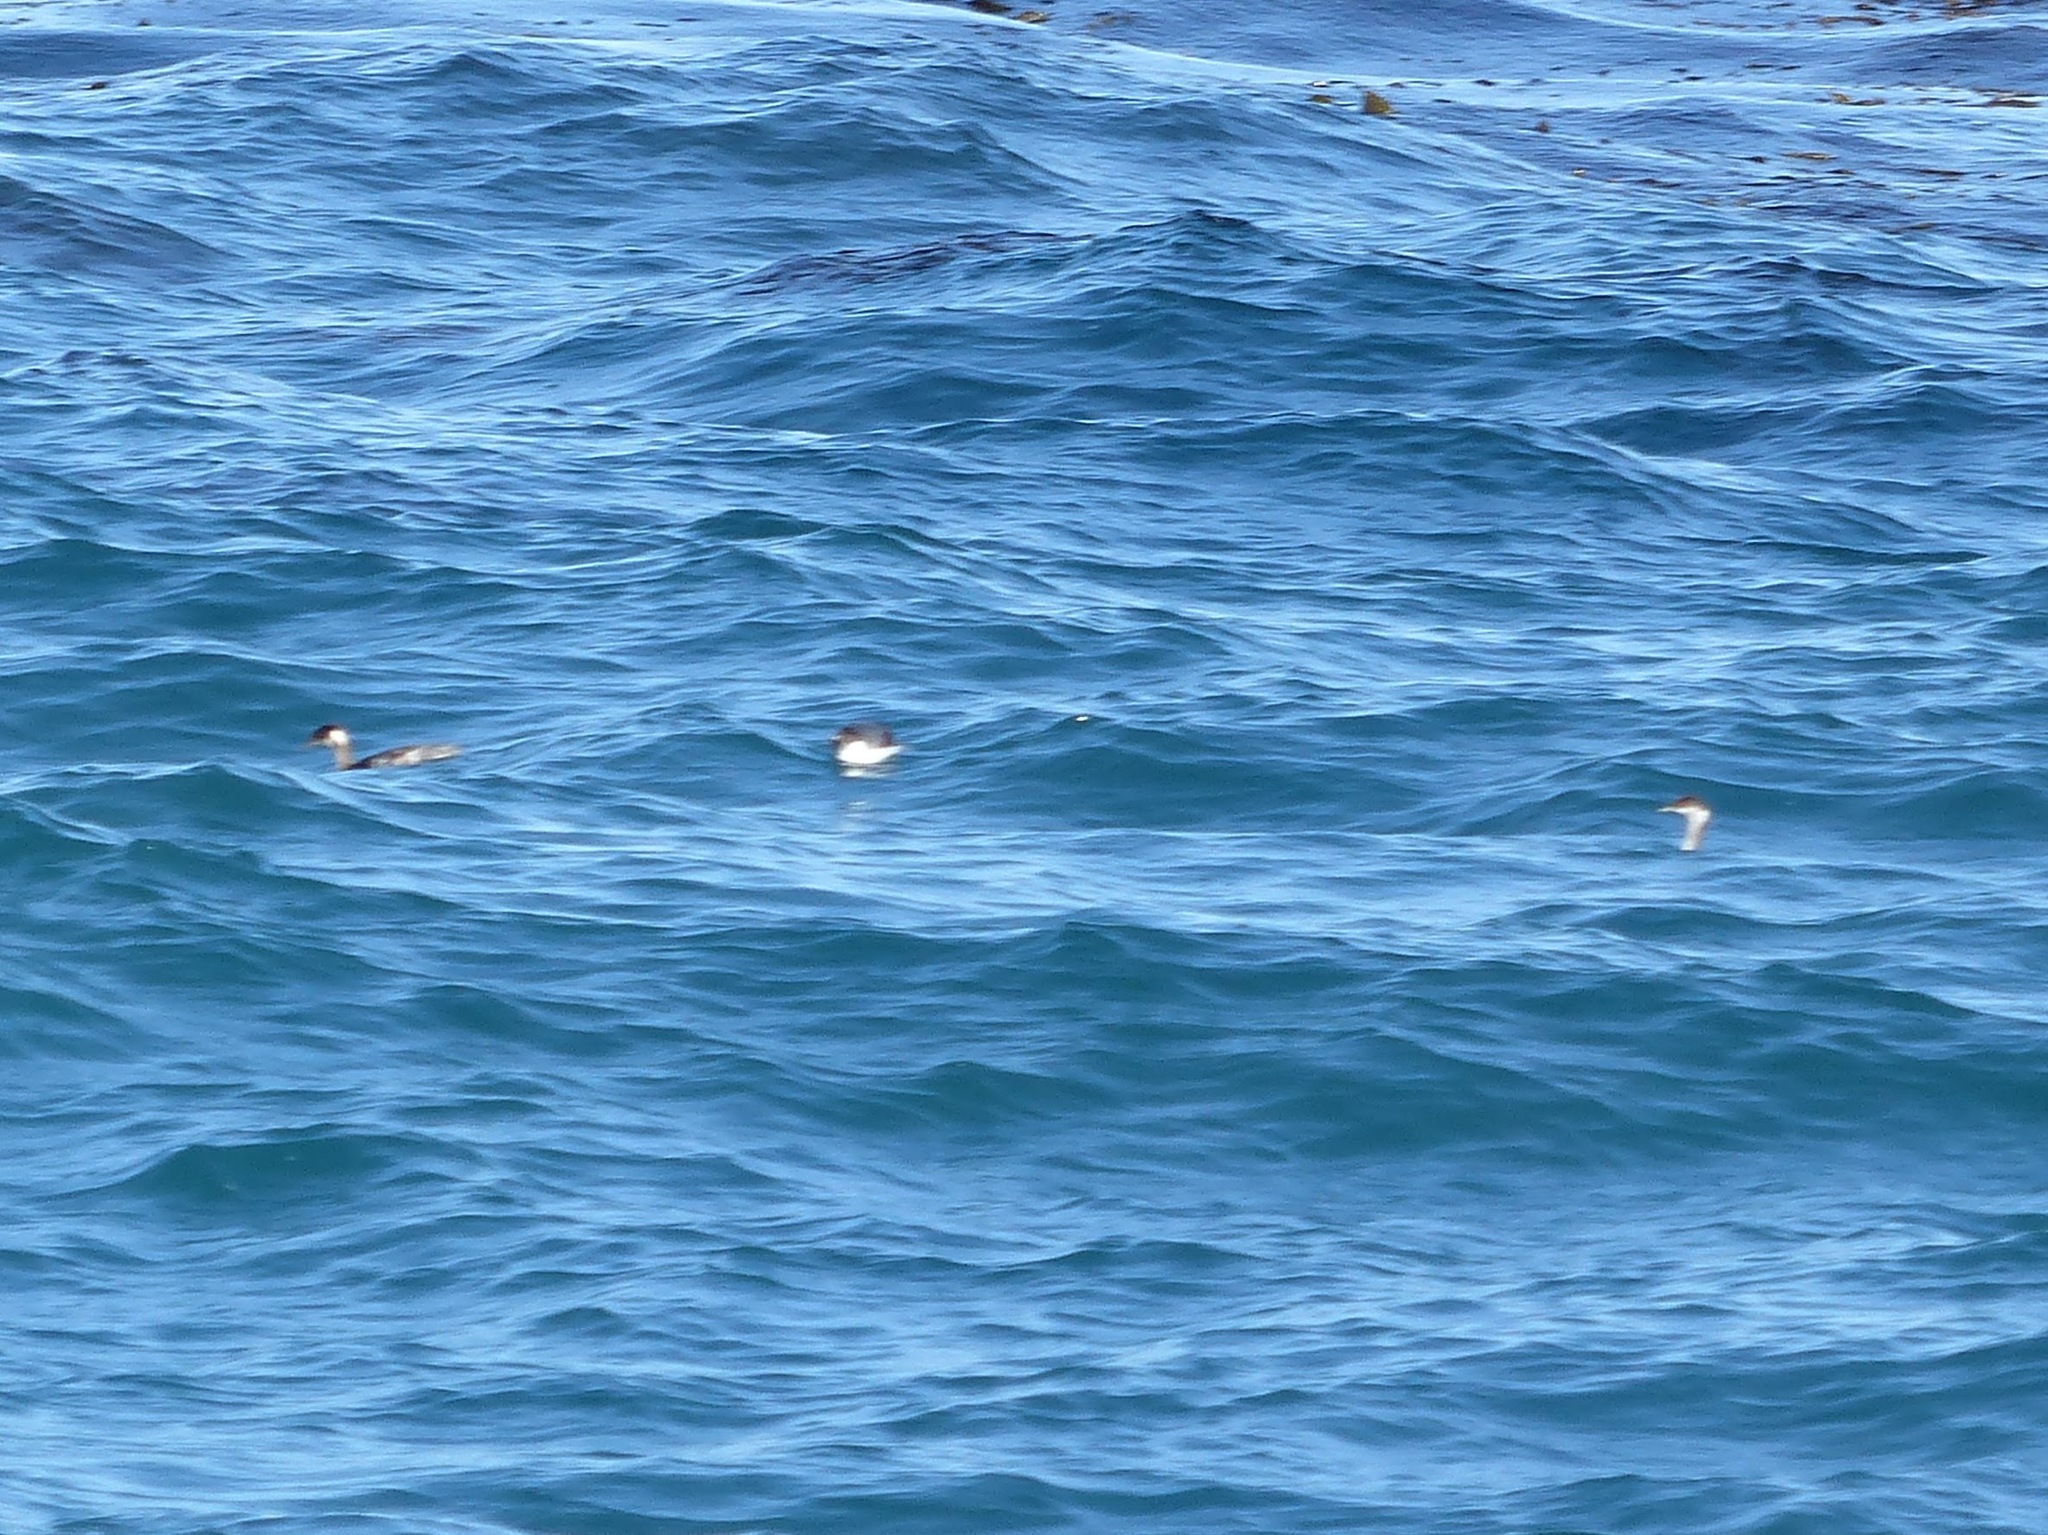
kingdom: Animalia
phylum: Chordata
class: Aves
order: Podicipediformes
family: Podicipedidae
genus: Podiceps
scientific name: Podiceps nigricollis
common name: Black-necked grebe
